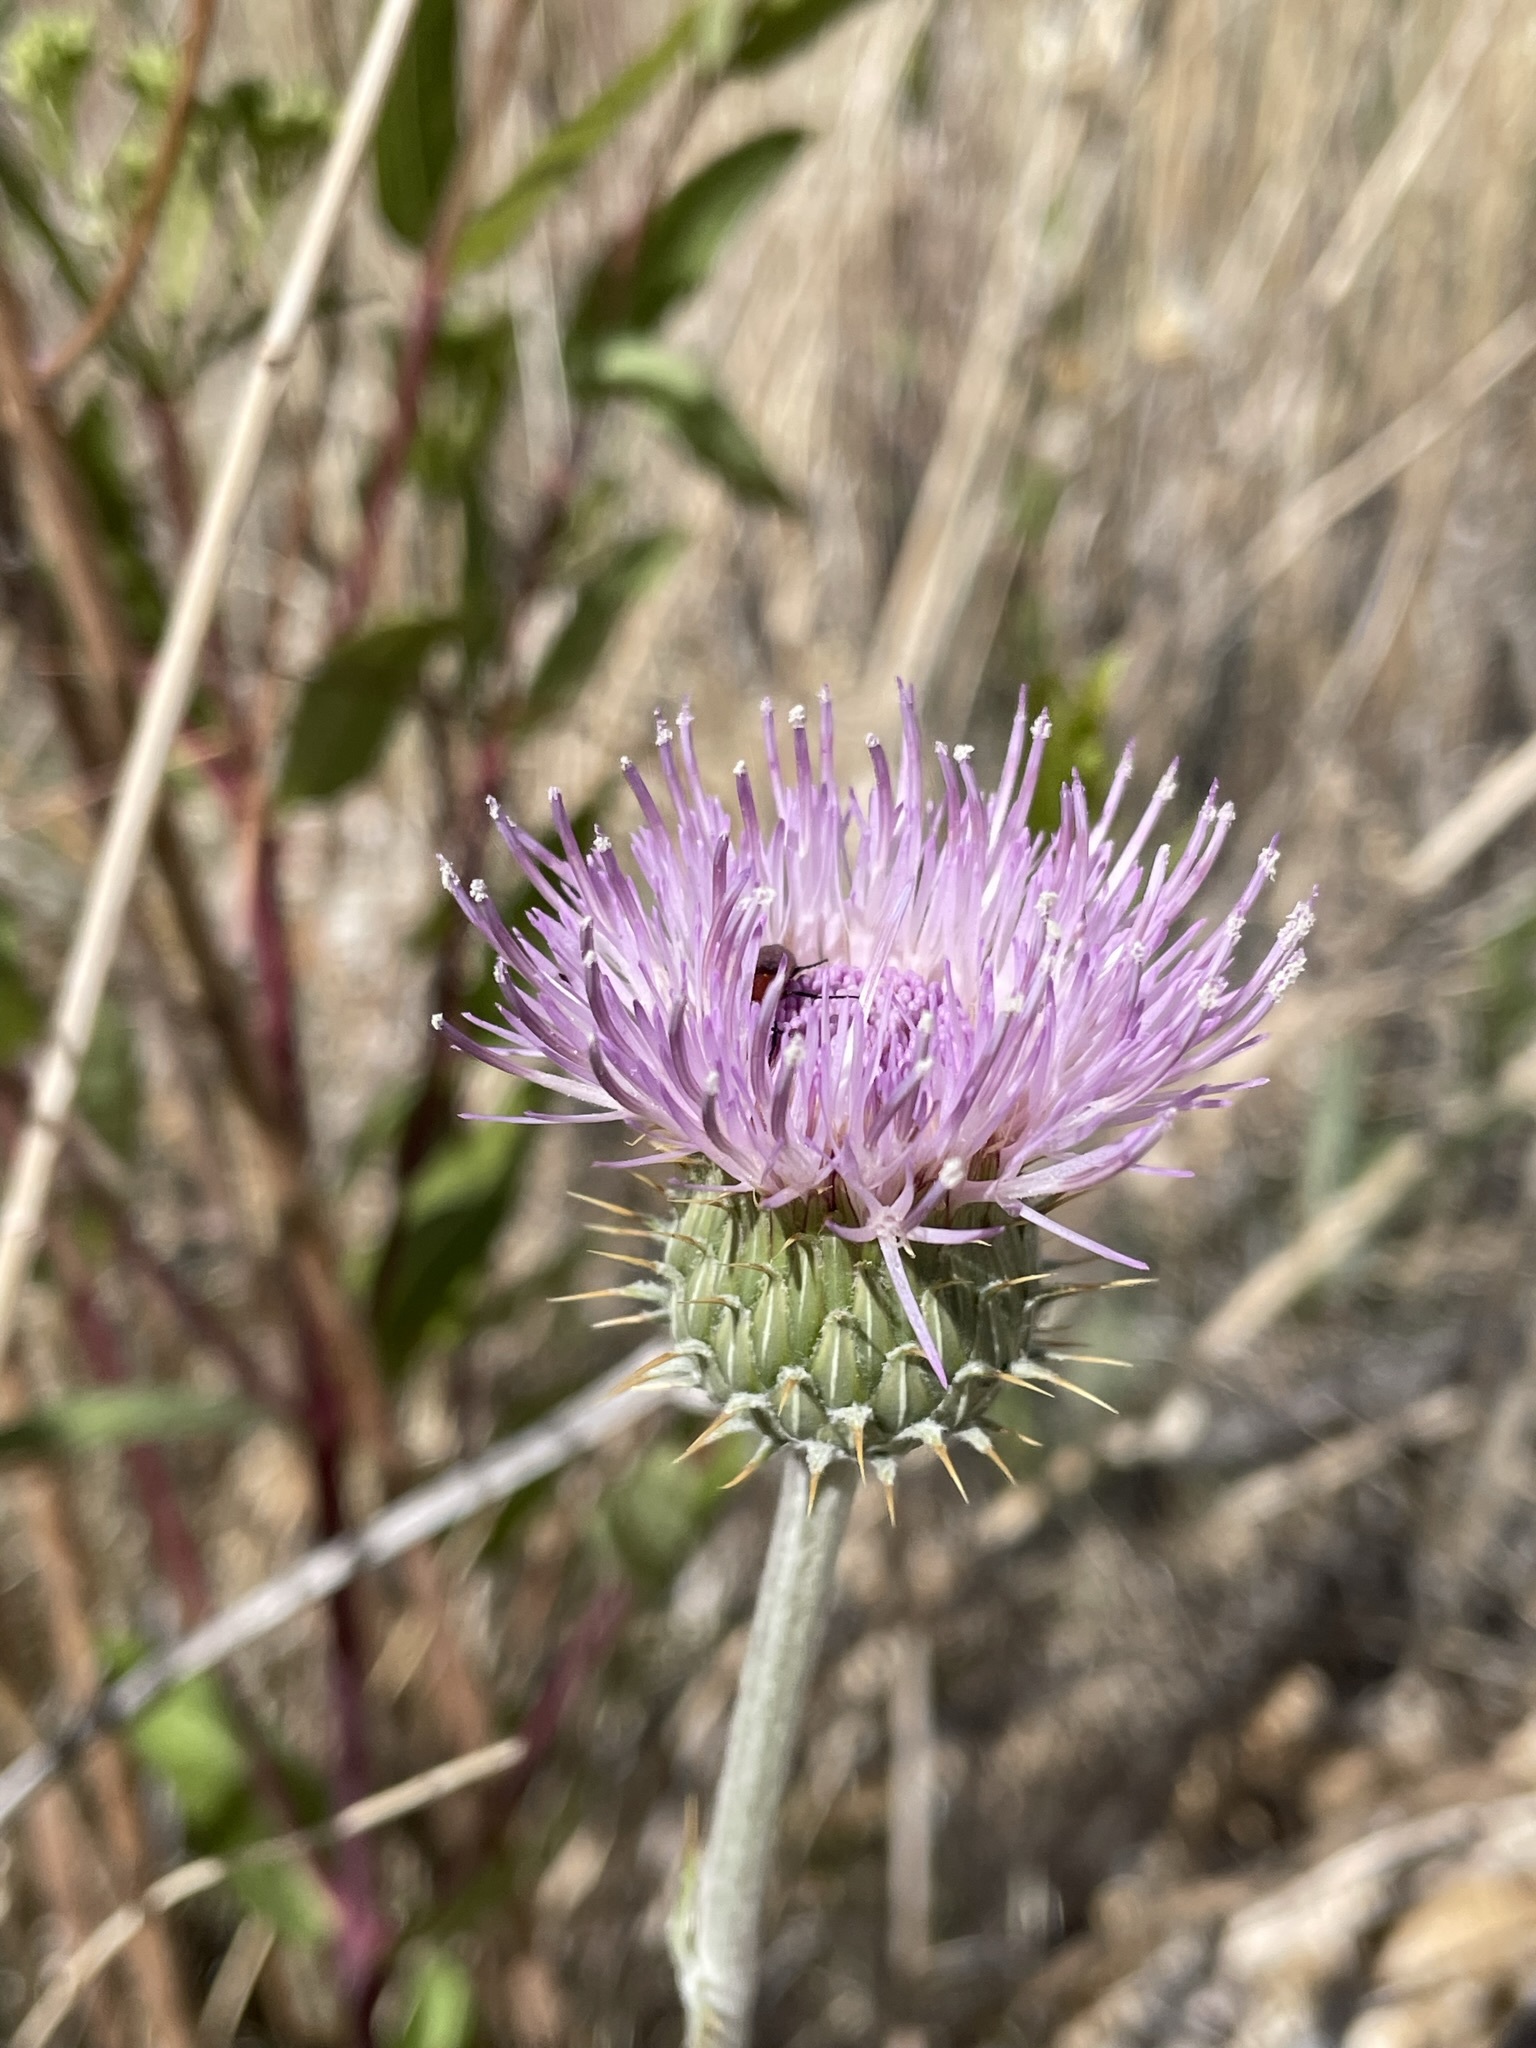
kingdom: Plantae
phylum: Tracheophyta
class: Magnoliopsida
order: Asterales
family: Asteraceae
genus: Cirsium
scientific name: Cirsium mohavense
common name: Mojave thistle
